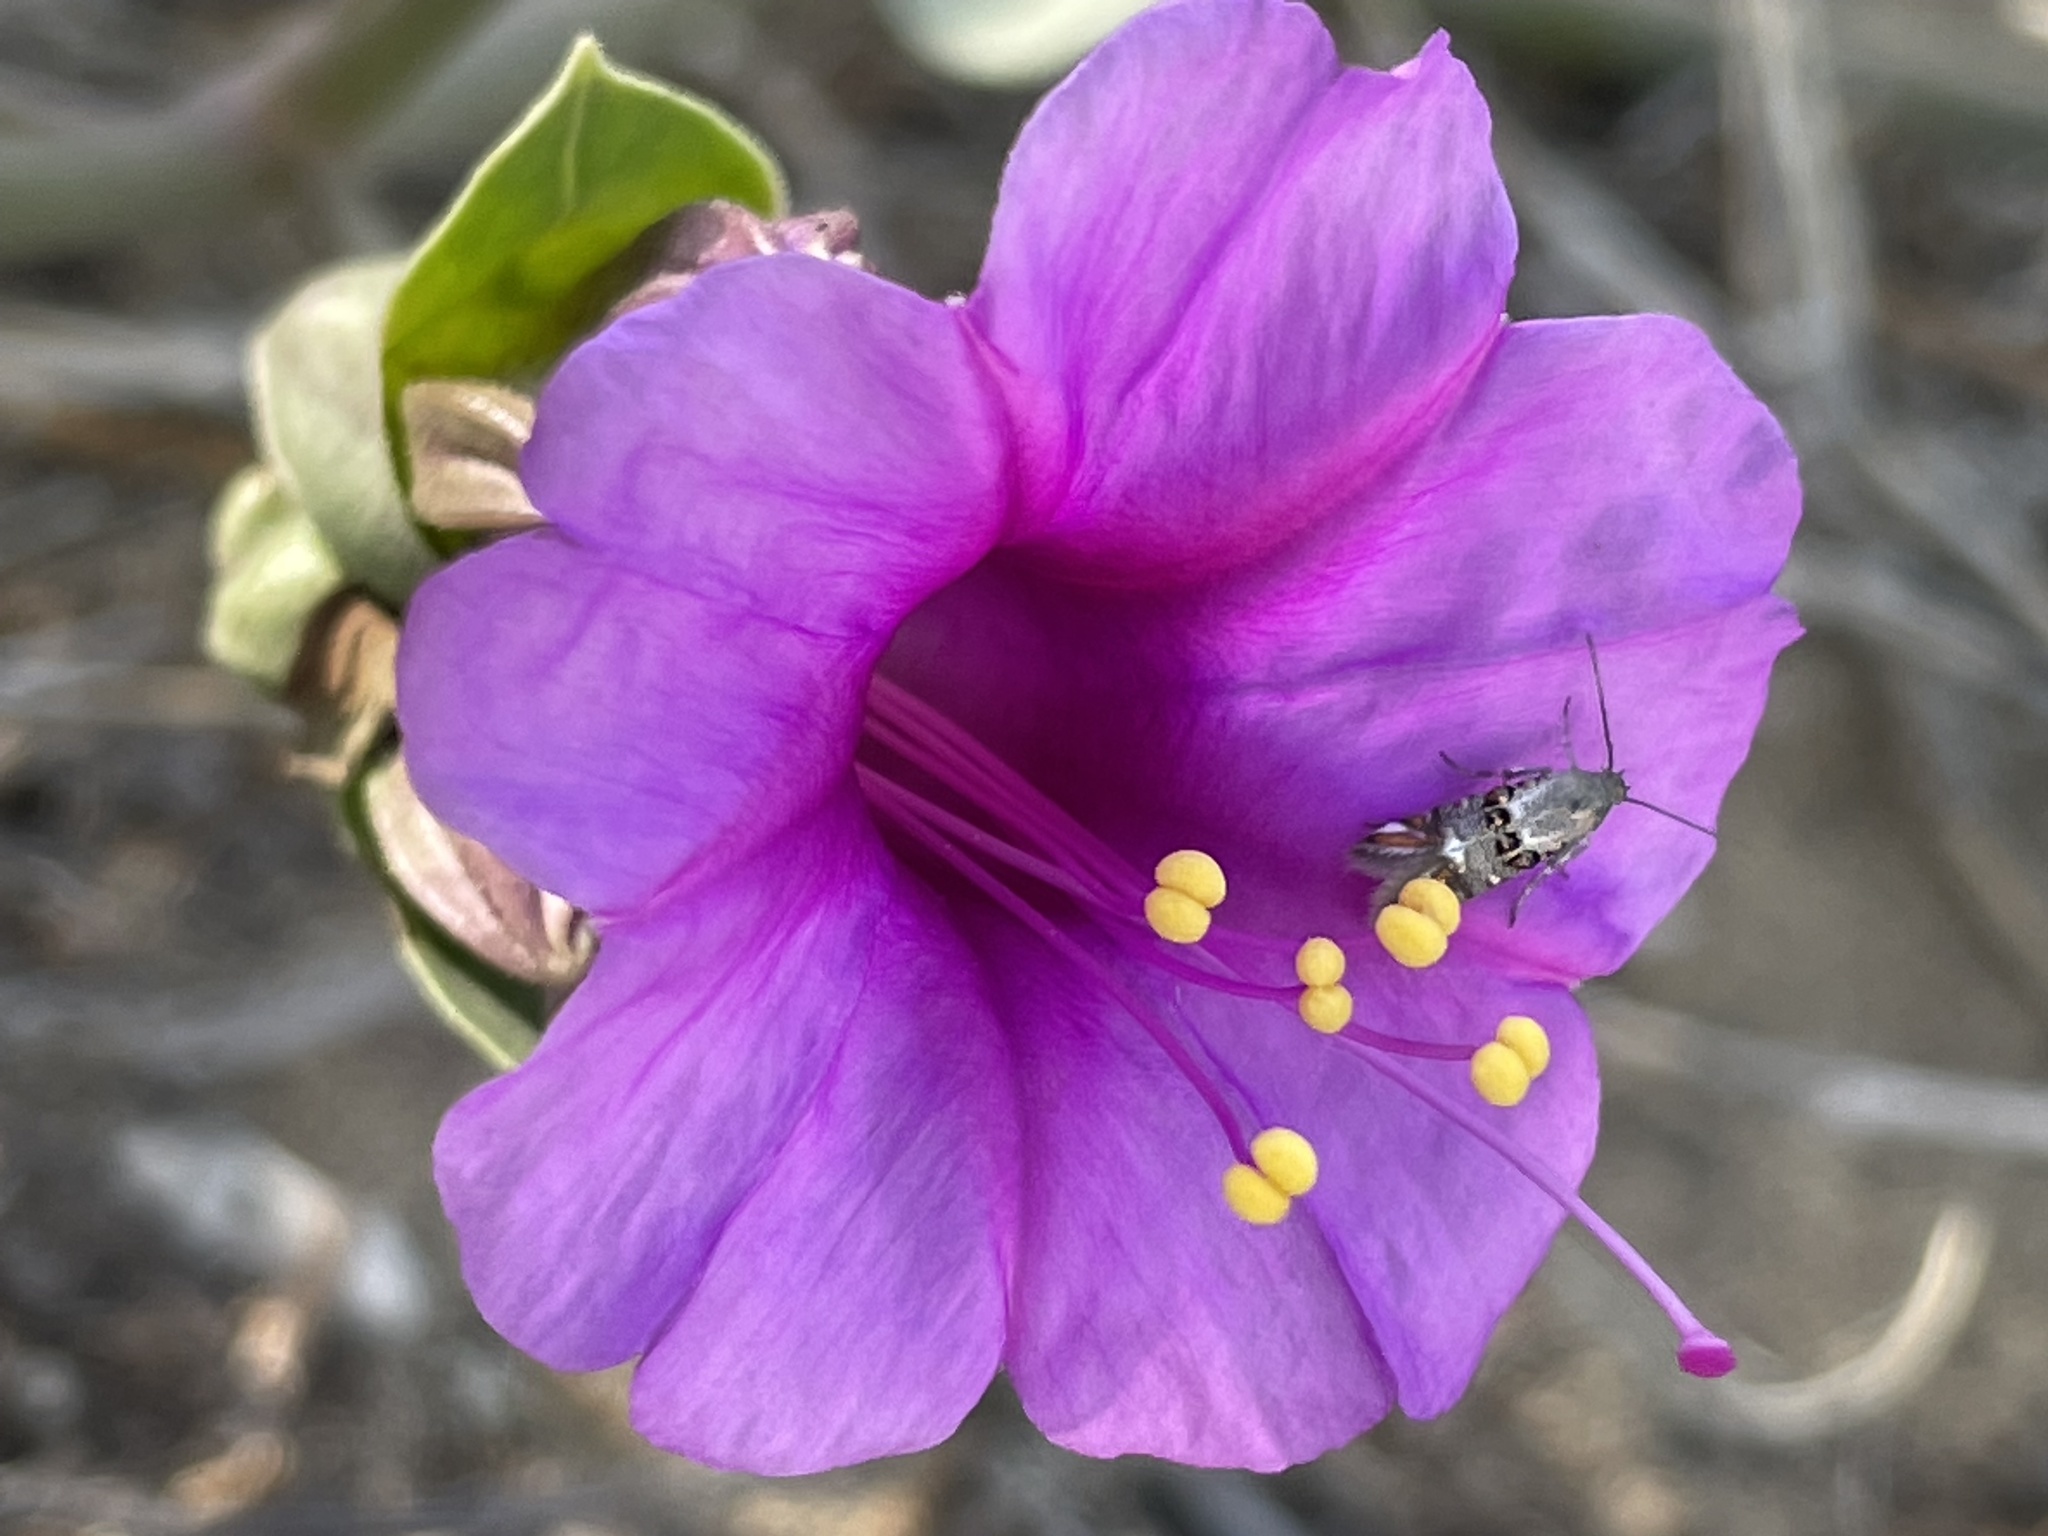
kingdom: Plantae
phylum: Tracheophyta
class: Magnoliopsida
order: Caryophyllales
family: Nyctaginaceae
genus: Mirabilis
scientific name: Mirabilis multiflora
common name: Froebel's four-o'clock
